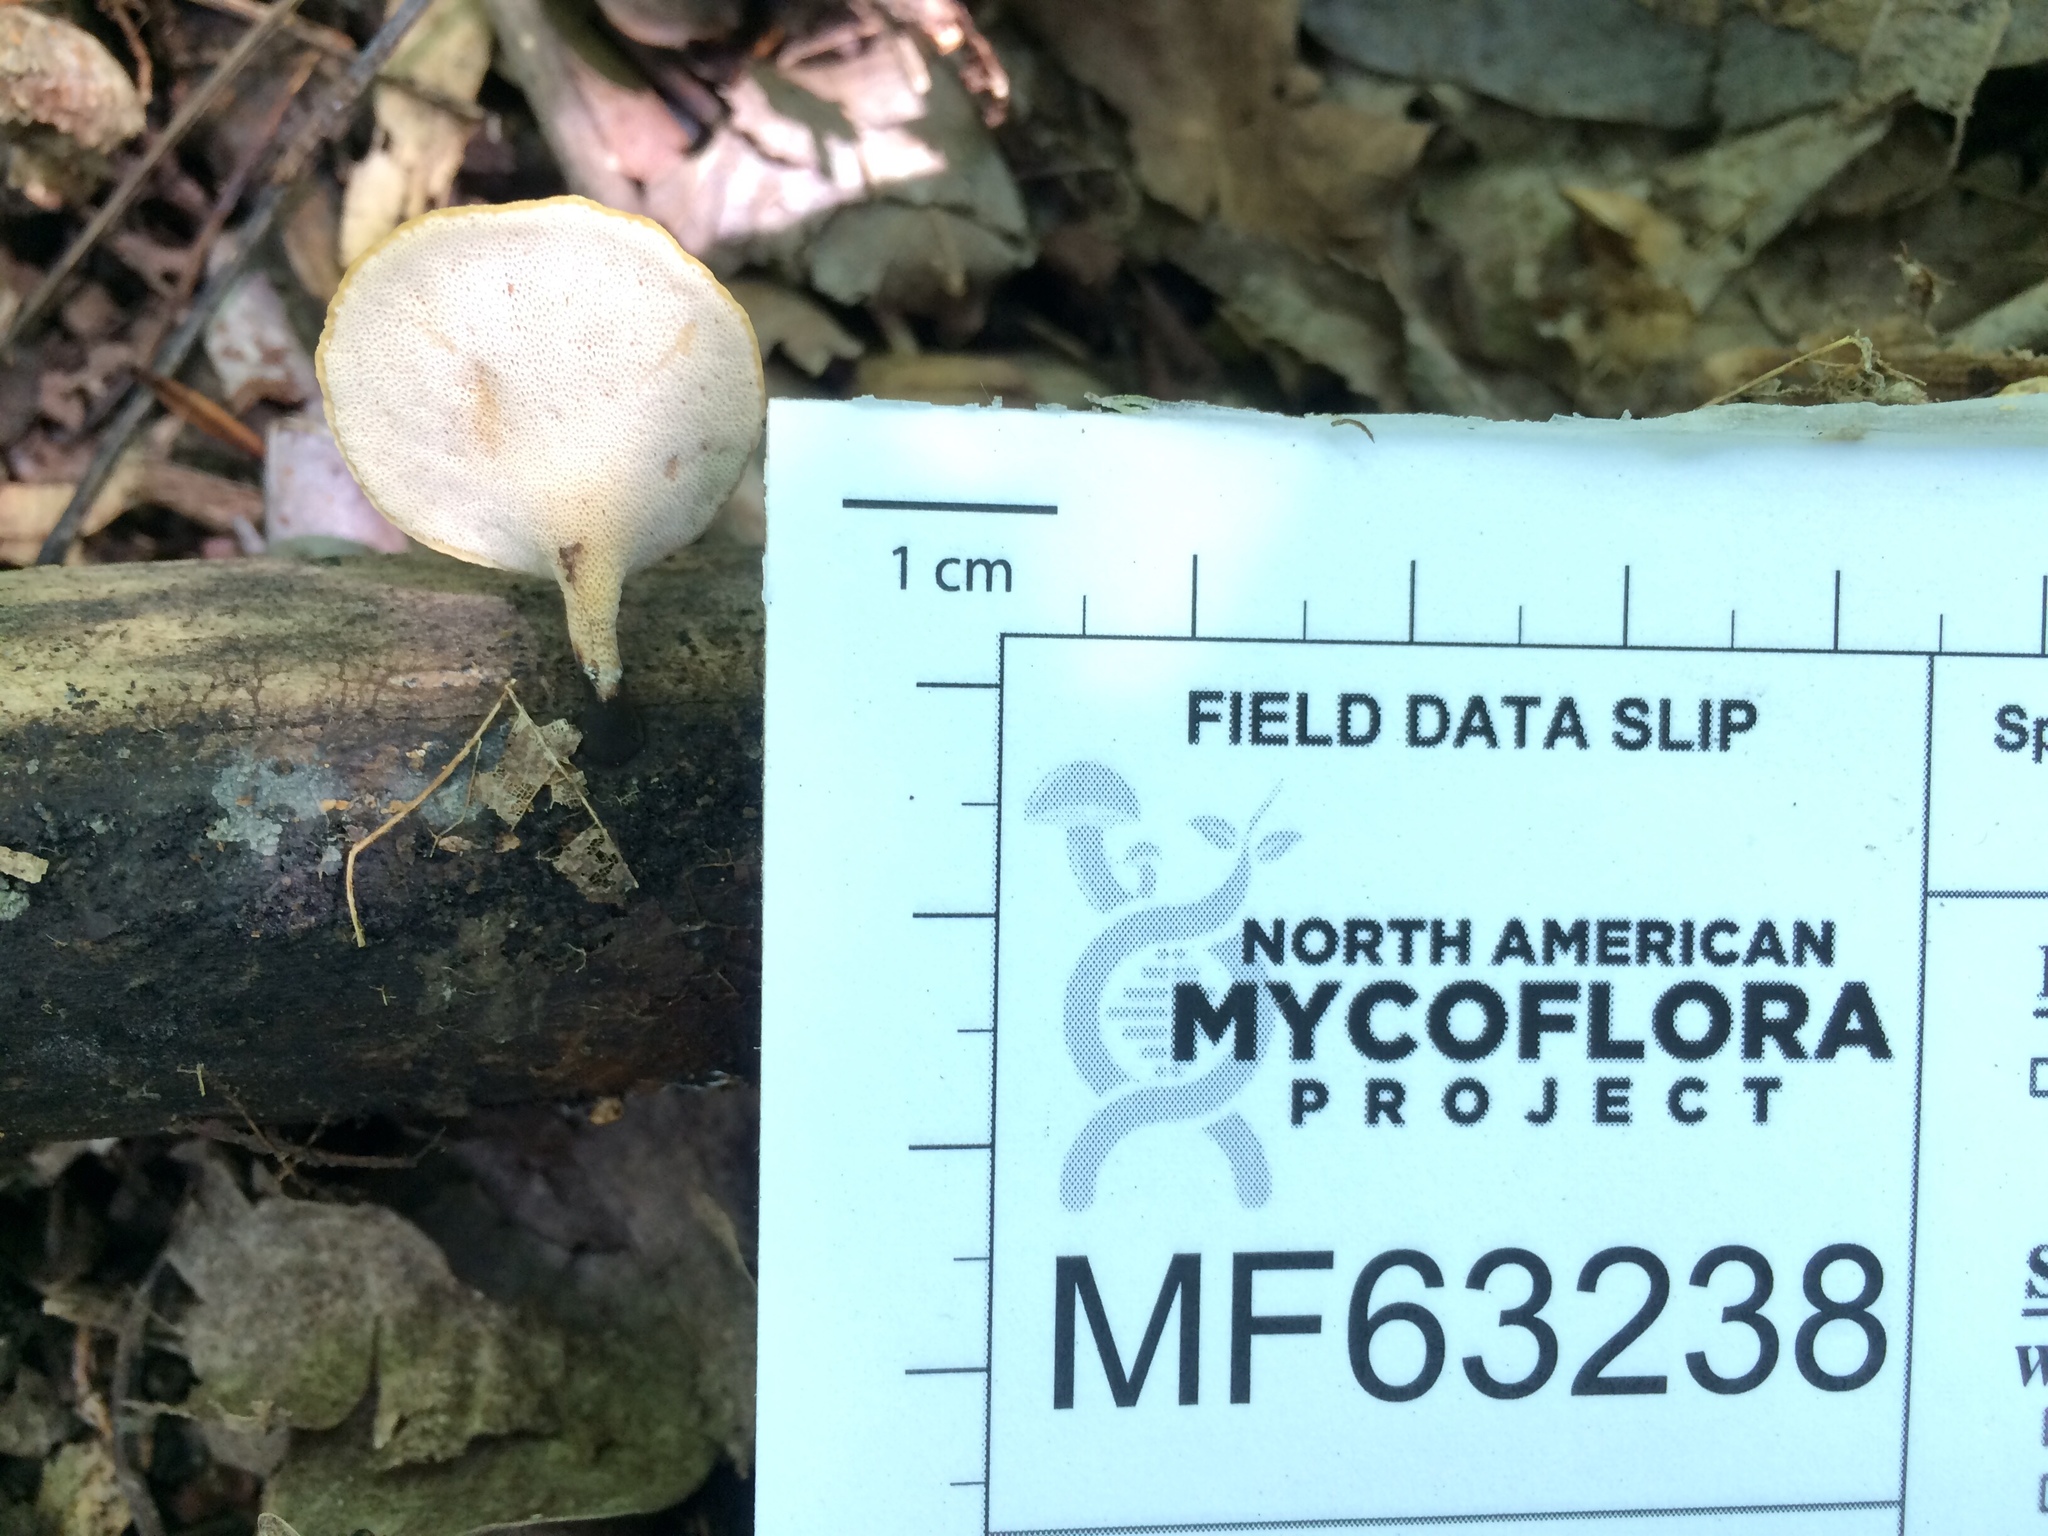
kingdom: Fungi
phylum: Basidiomycota
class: Agaricomycetes
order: Polyporales
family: Polyporaceae
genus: Cerioporus
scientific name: Cerioporus varius
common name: Elegant polypore
